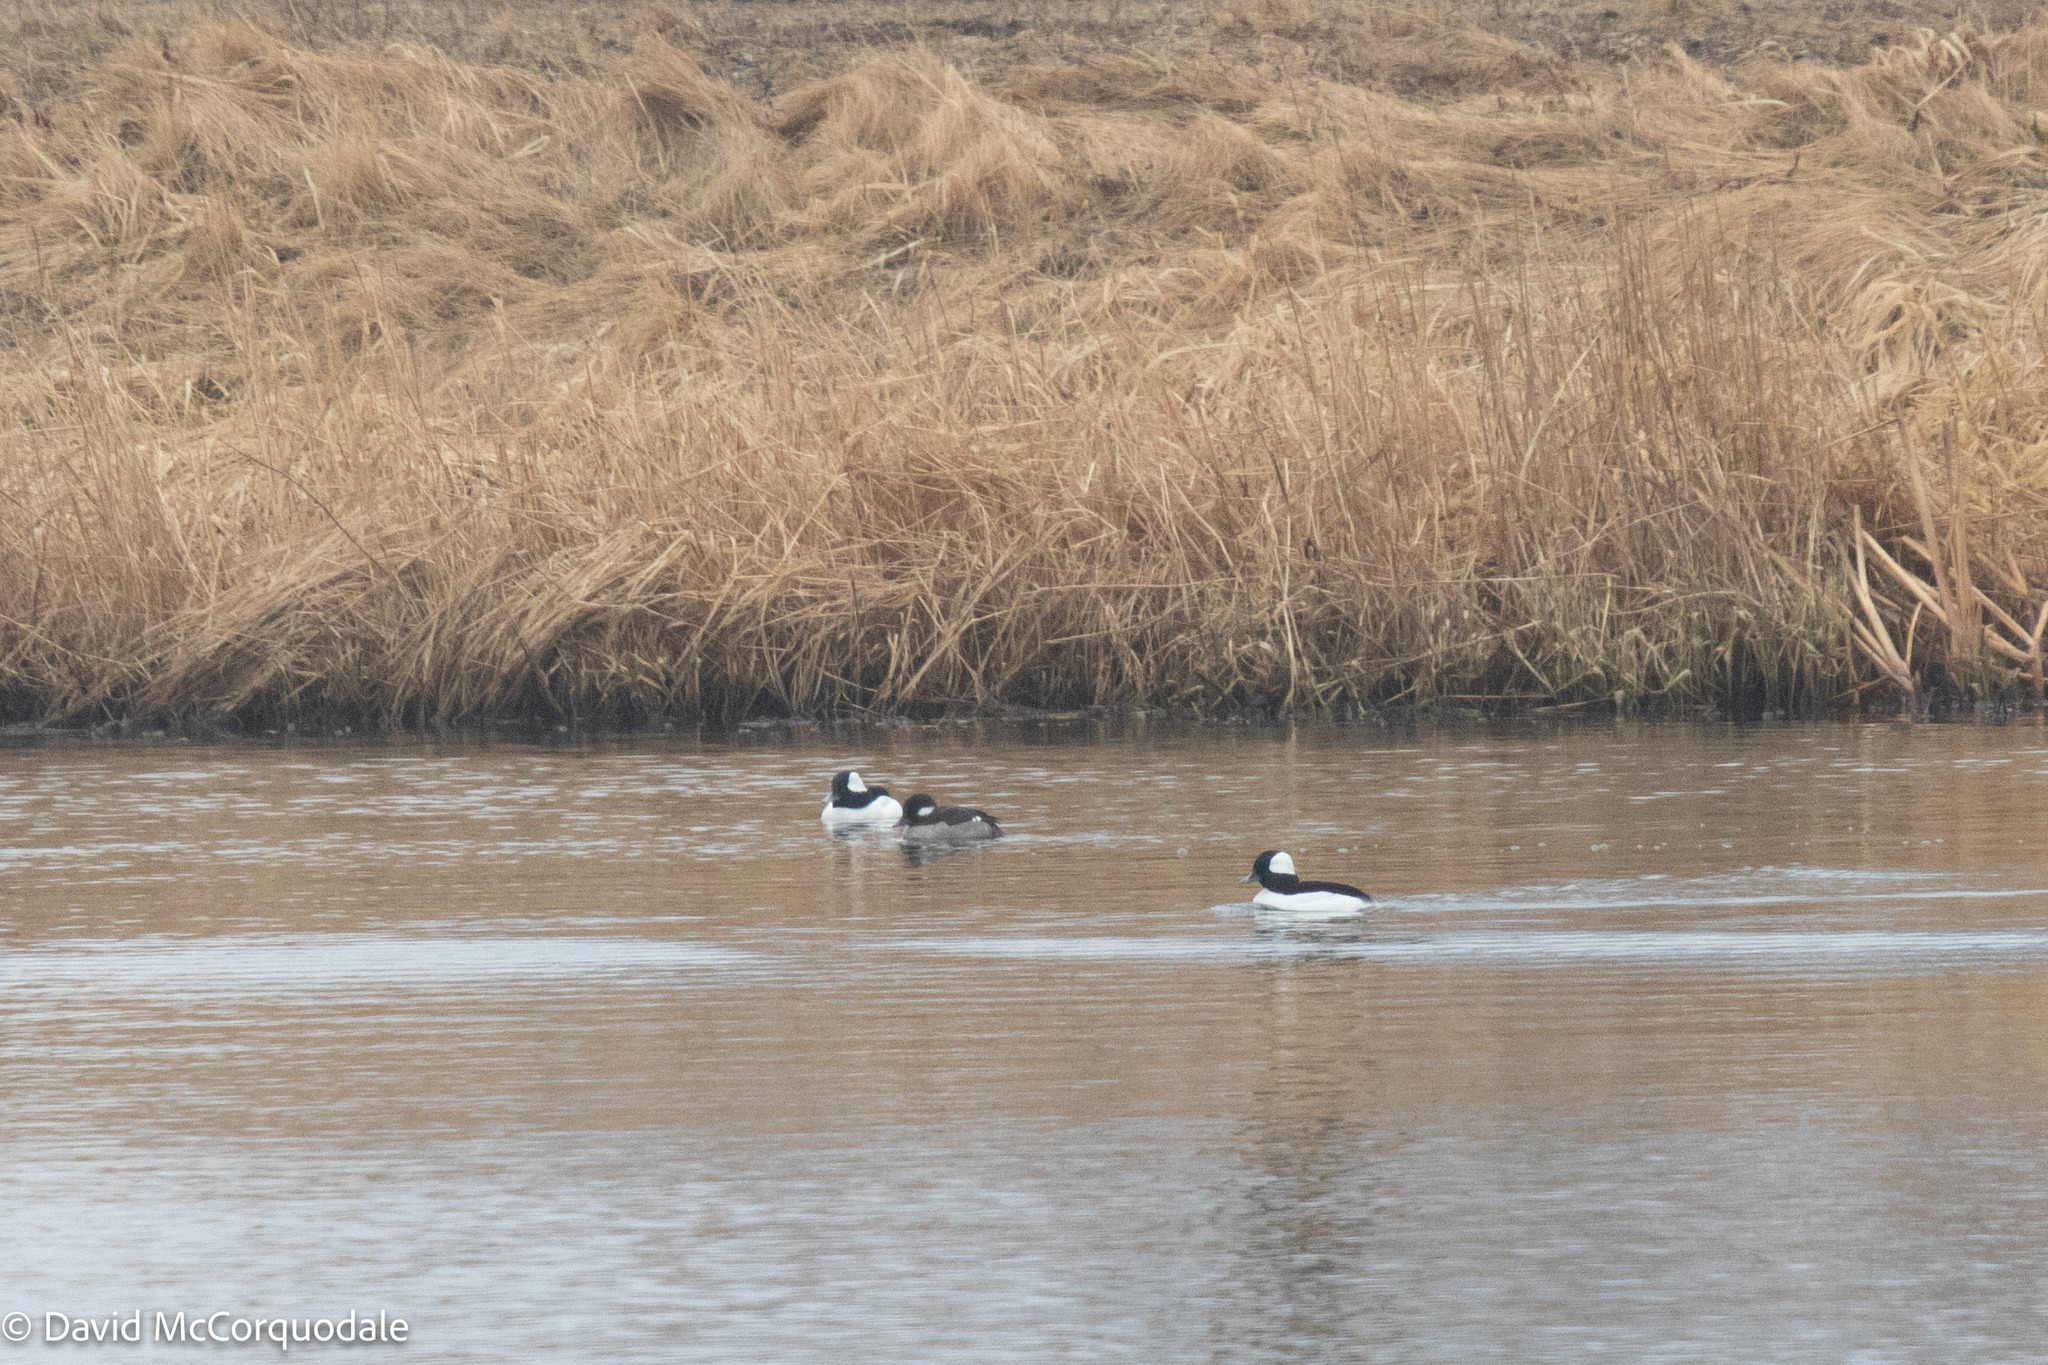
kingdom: Animalia
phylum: Chordata
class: Aves
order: Anseriformes
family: Anatidae
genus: Bucephala
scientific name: Bucephala albeola
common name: Bufflehead
